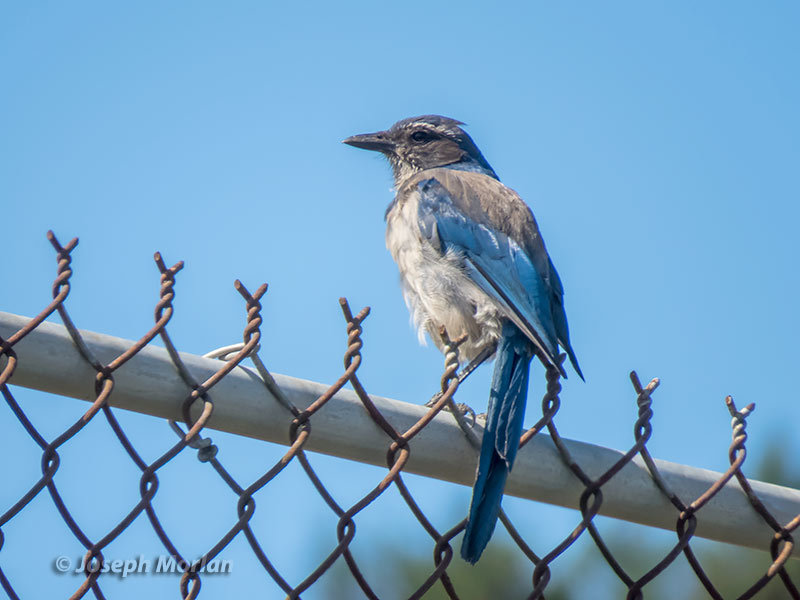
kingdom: Animalia
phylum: Chordata
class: Aves
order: Passeriformes
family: Corvidae
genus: Aphelocoma
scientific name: Aphelocoma californica
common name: California scrub-jay
